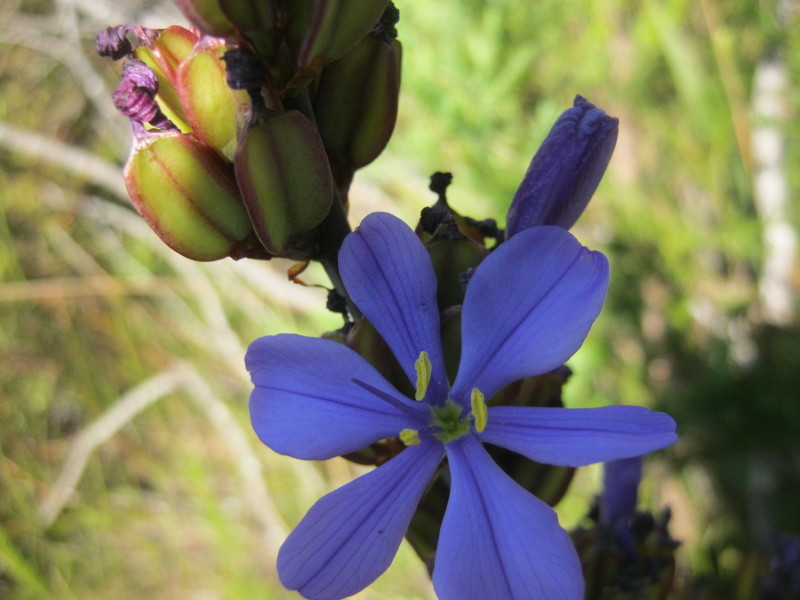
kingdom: Plantae
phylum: Tracheophyta
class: Liliopsida
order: Asparagales
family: Iridaceae
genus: Aristea
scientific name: Aristea bakeri
